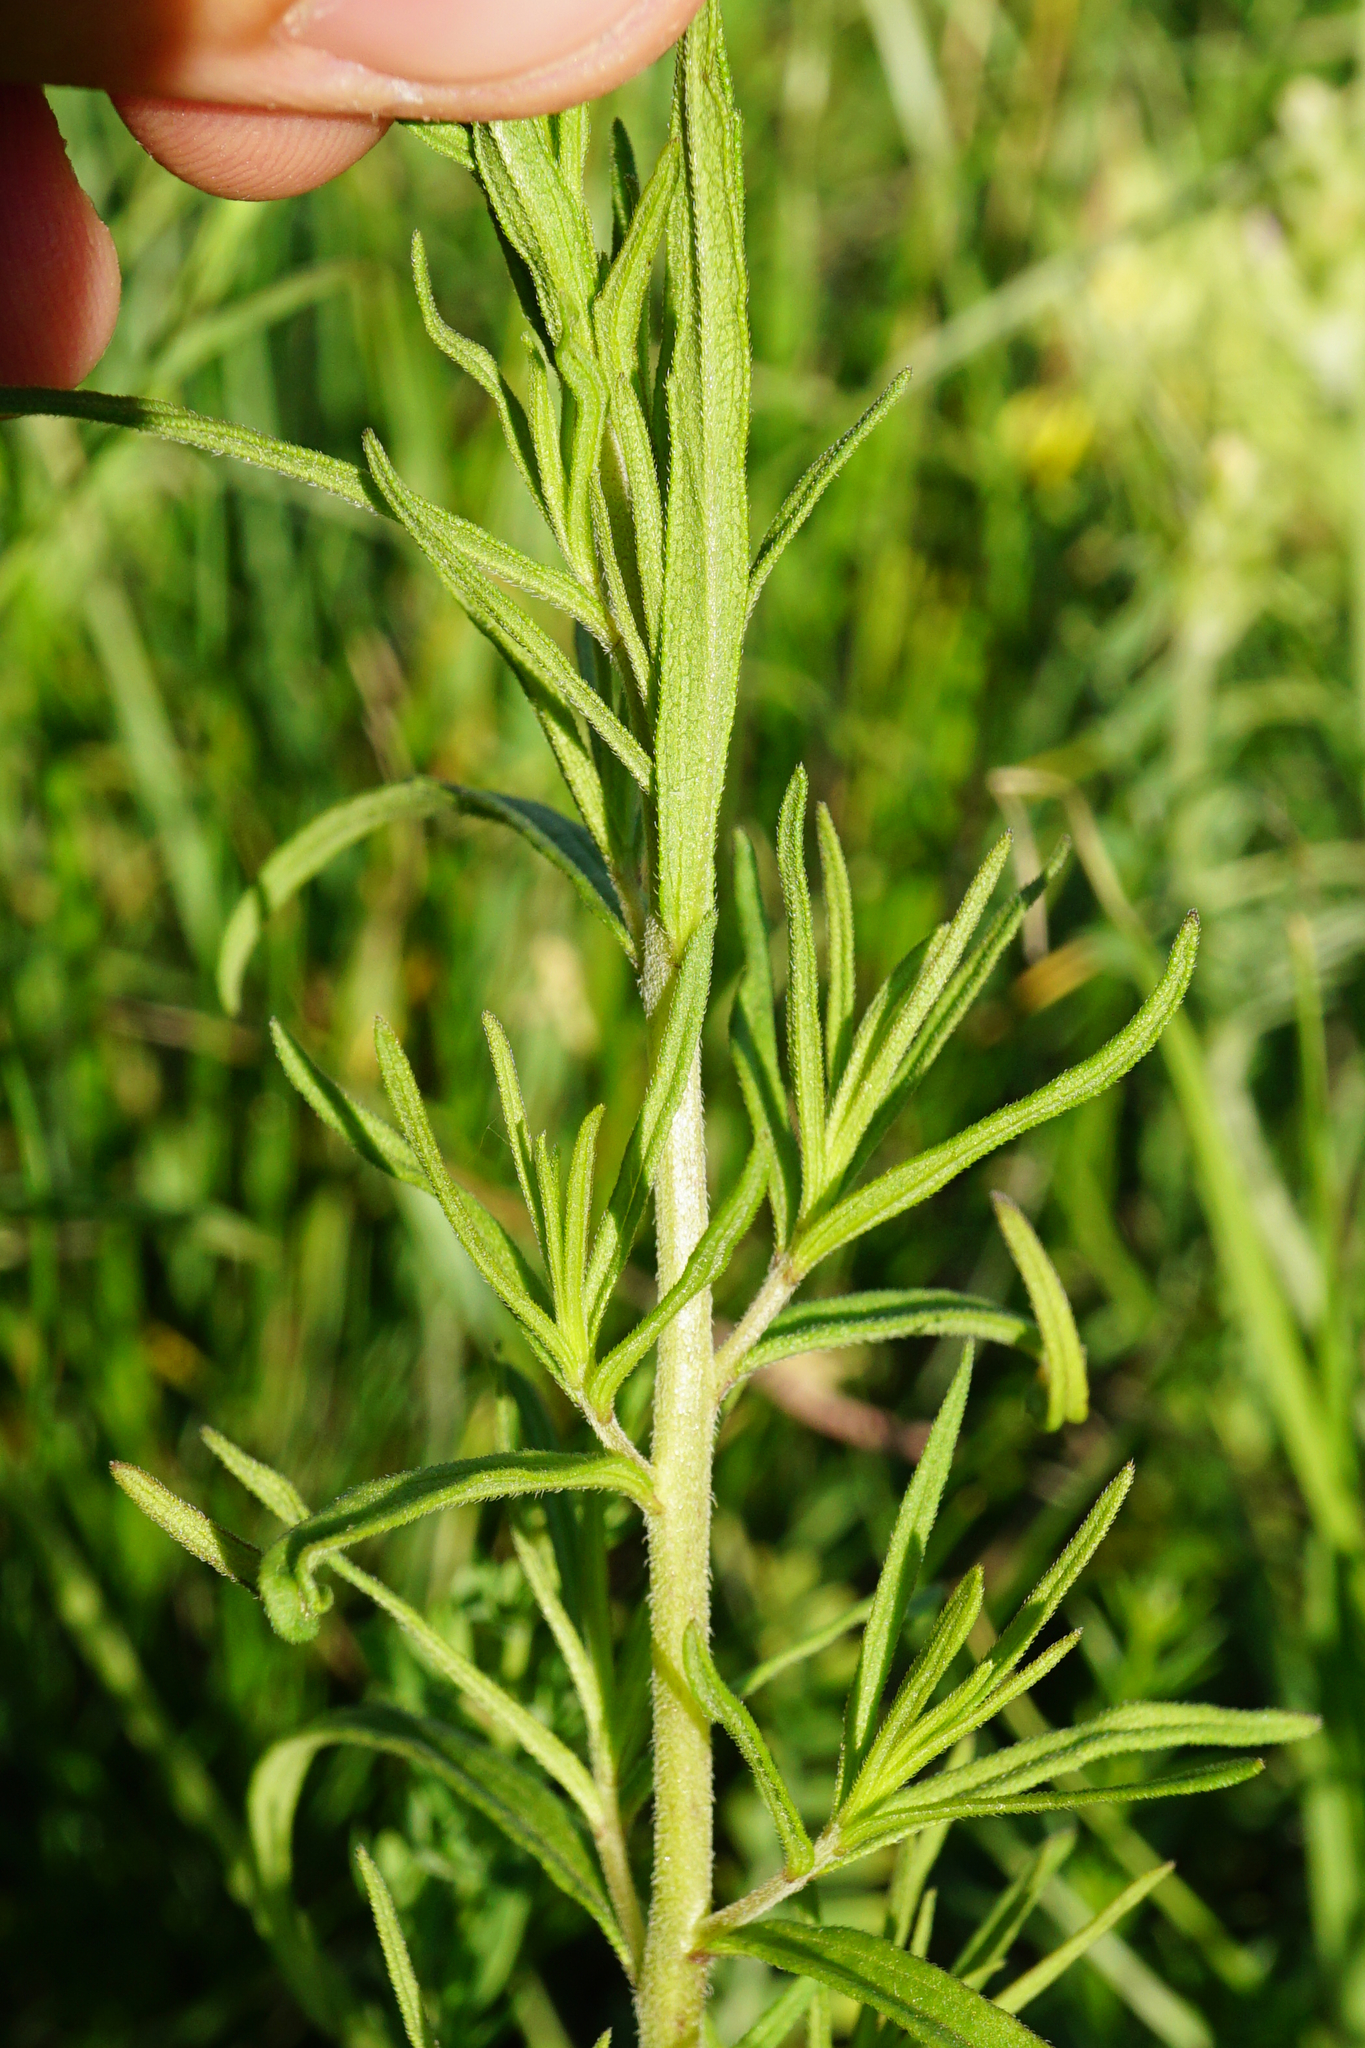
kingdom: Plantae
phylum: Tracheophyta
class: Magnoliopsida
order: Lamiales
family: Orobanchaceae
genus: Odontites
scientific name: Odontites luteus
